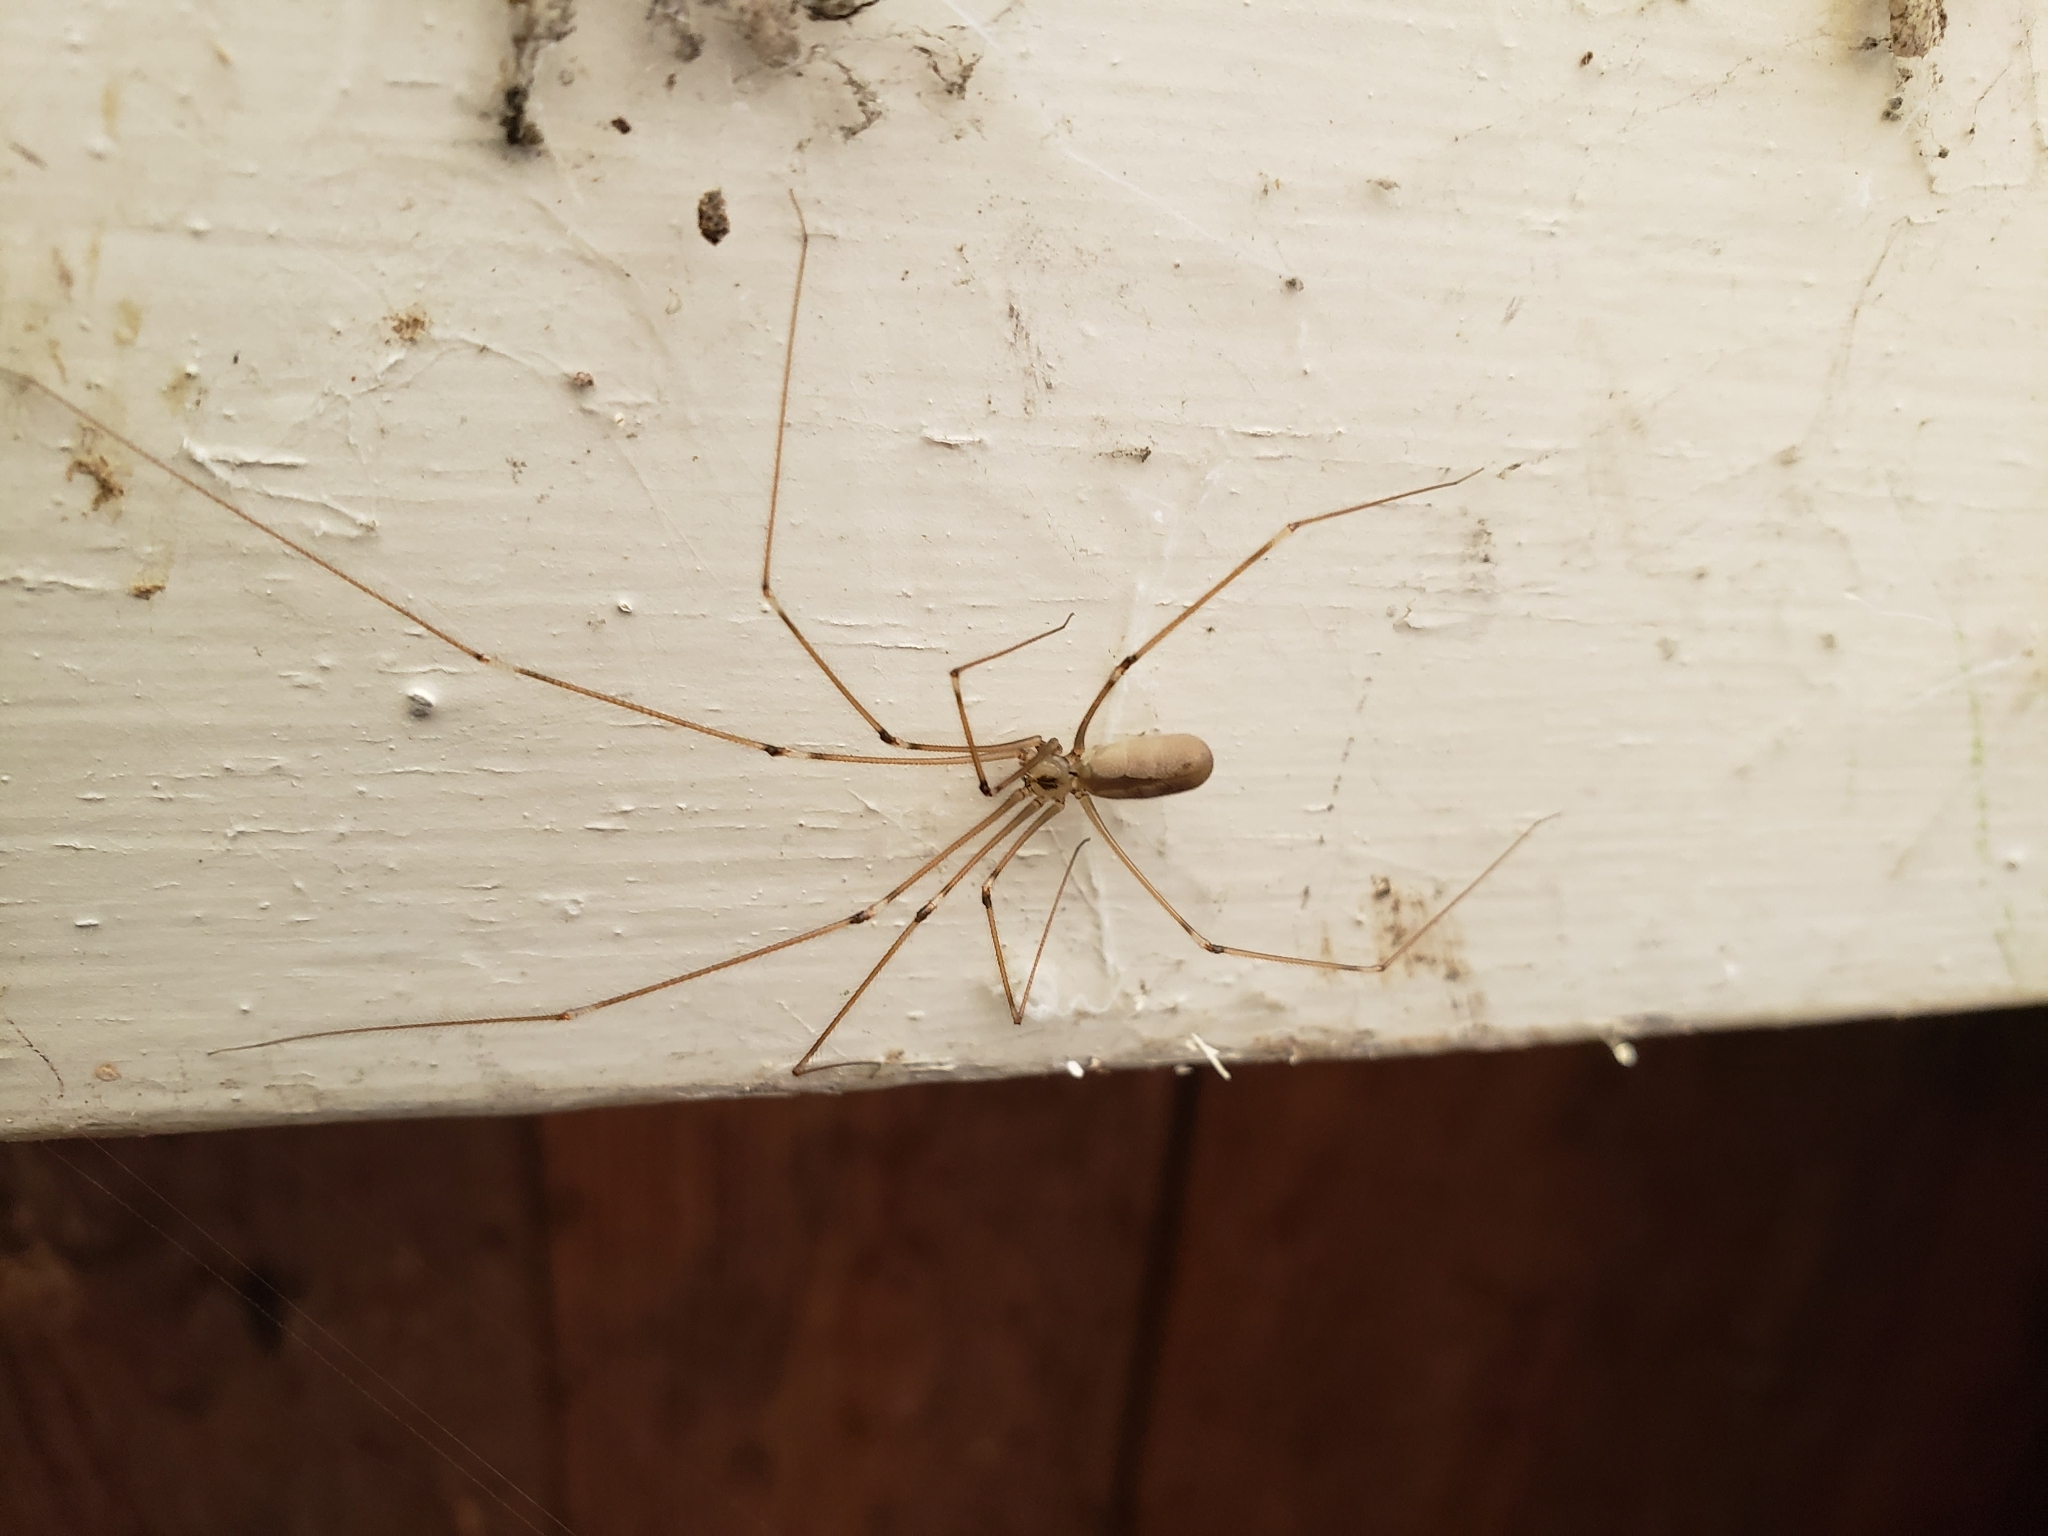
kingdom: Animalia
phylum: Arthropoda
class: Arachnida
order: Araneae
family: Pholcidae
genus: Pholcus
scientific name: Pholcus manueli
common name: Cellar spider
